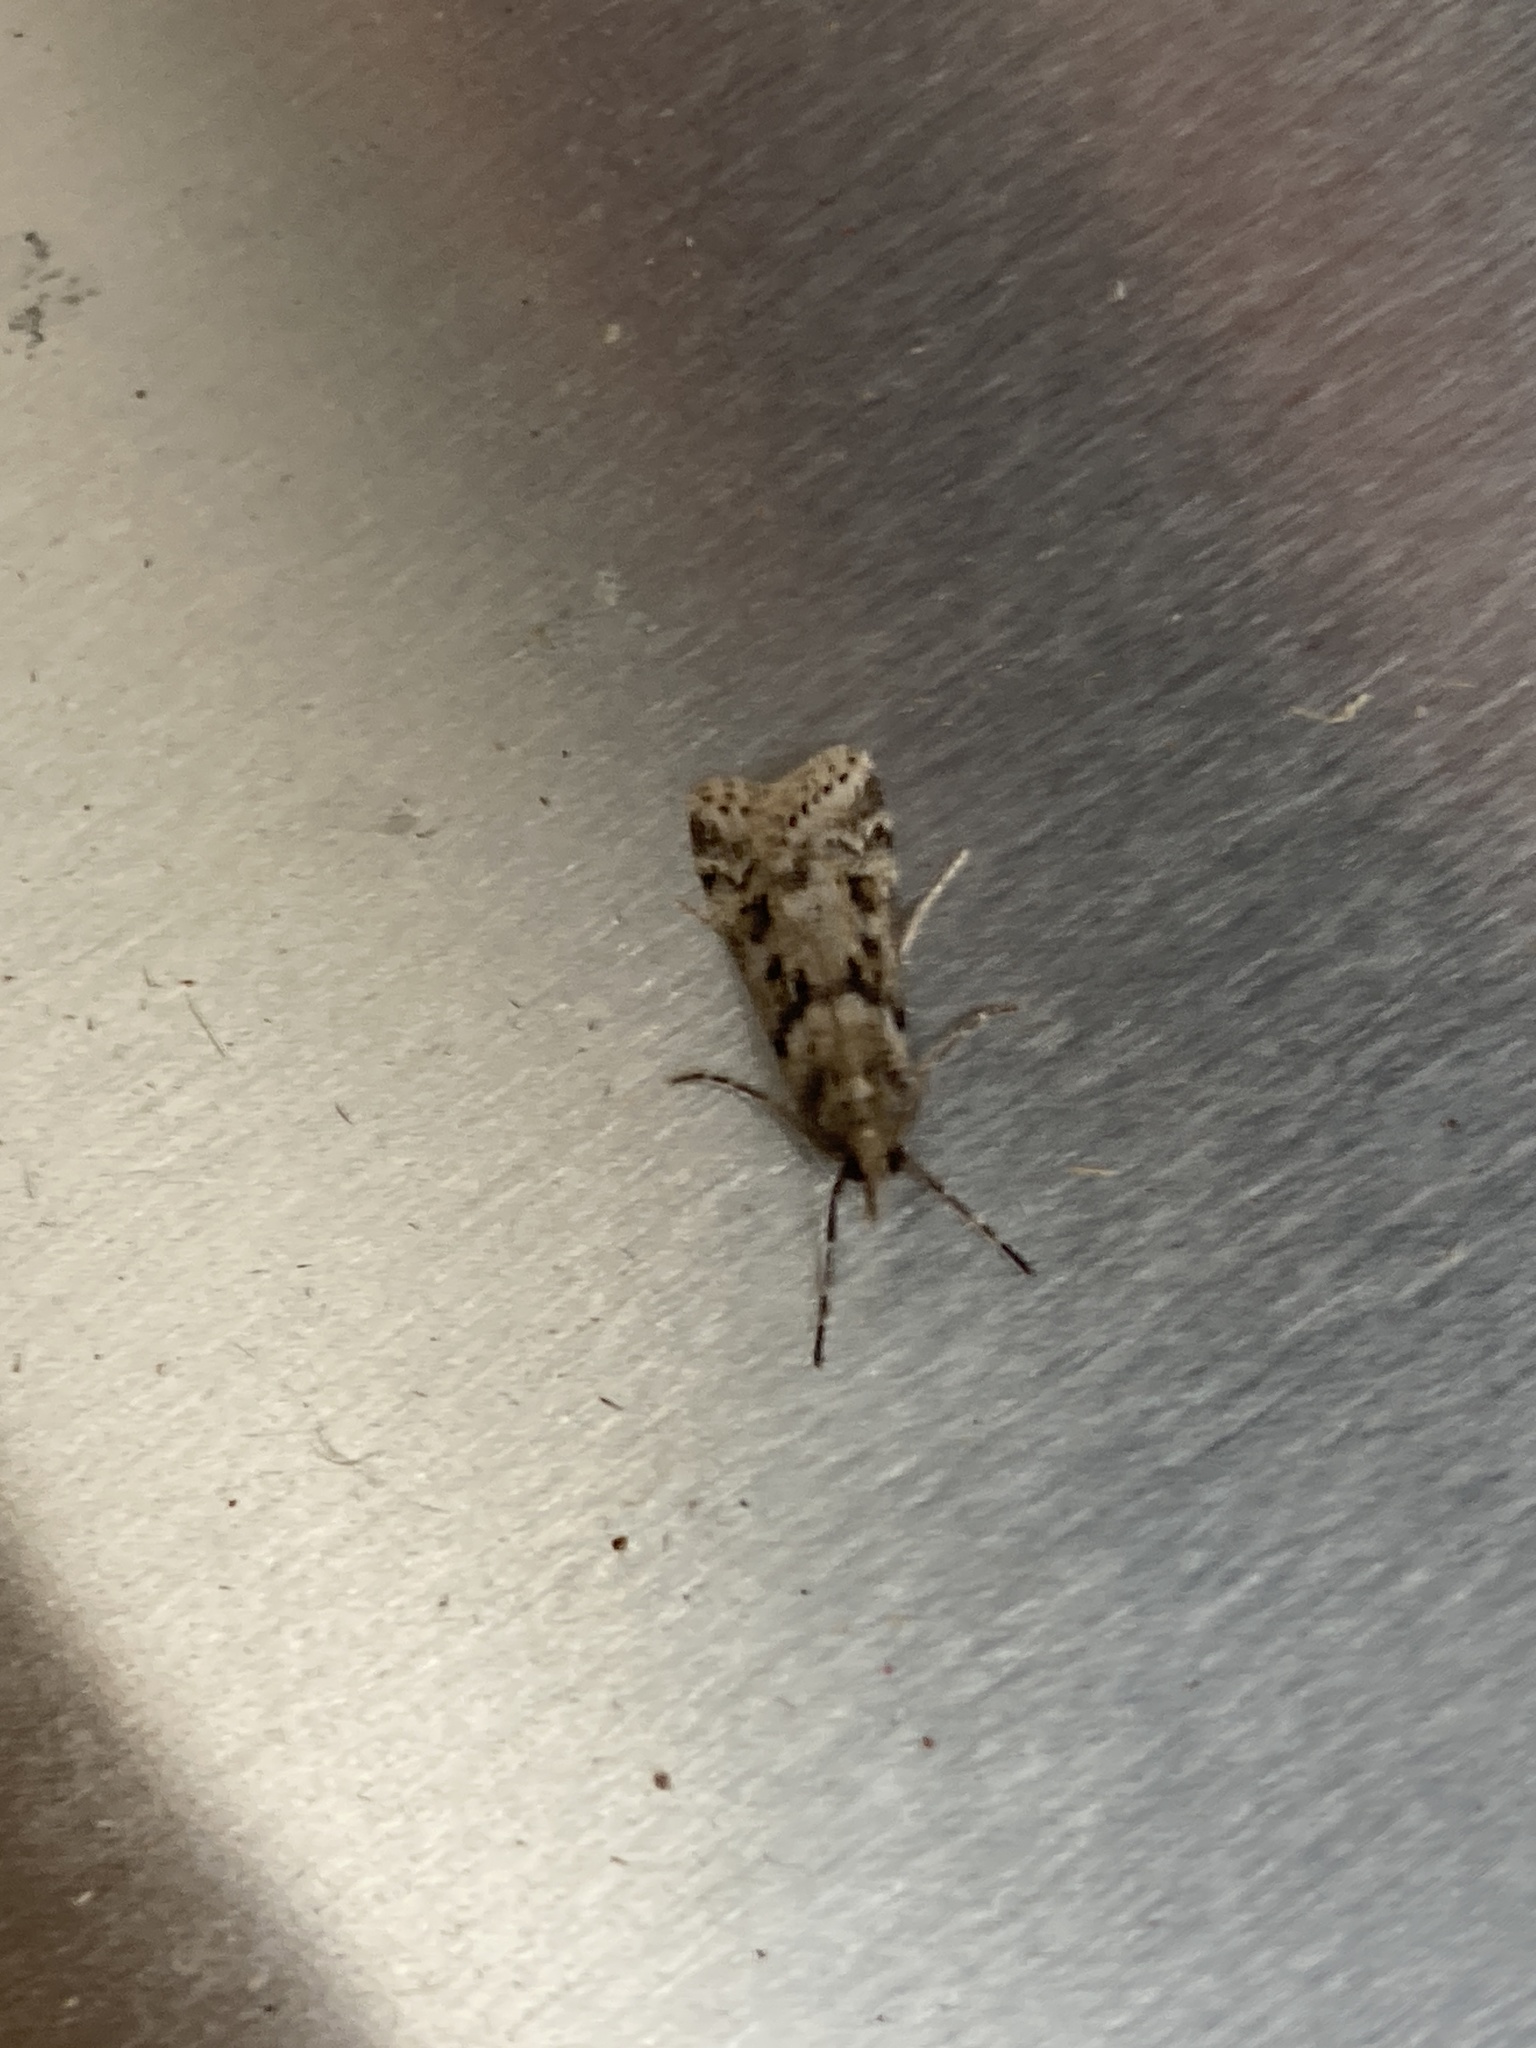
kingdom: Animalia
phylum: Arthropoda
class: Insecta
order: Lepidoptera
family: Crambidae
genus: Eudonia
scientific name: Eudonia angustea
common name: Narrow-winged grey
